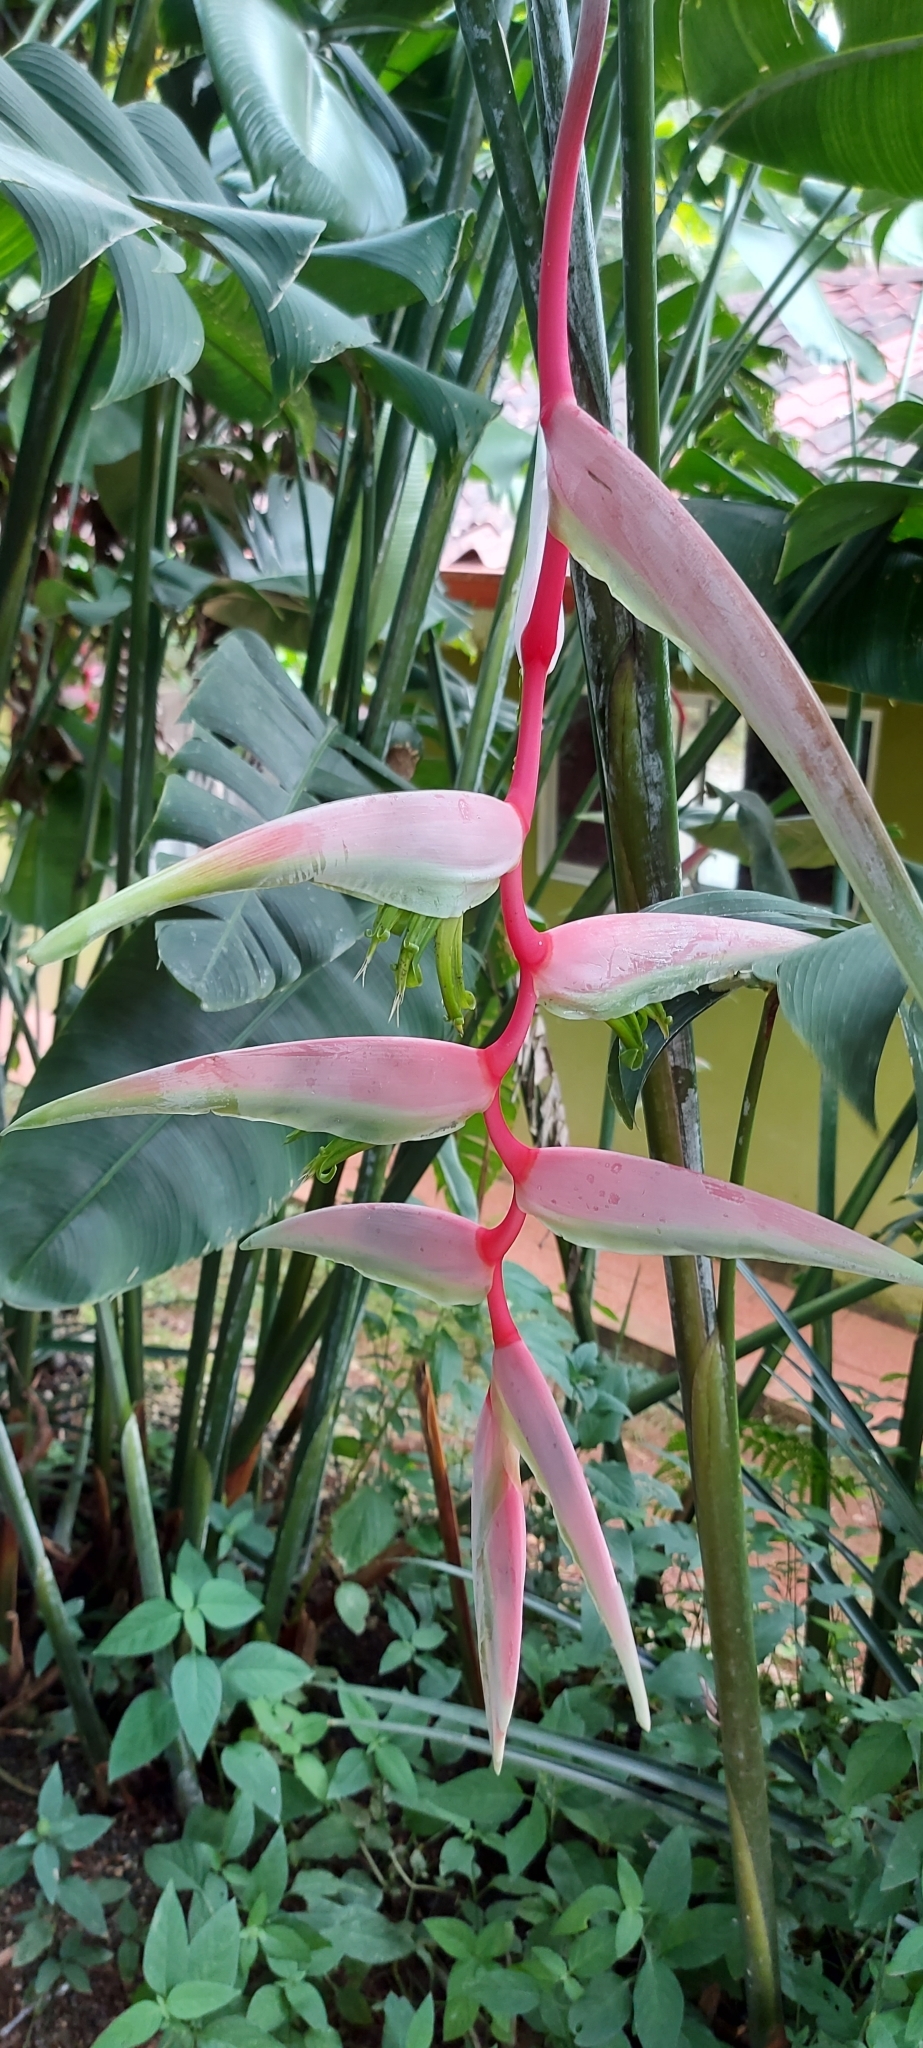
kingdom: Plantae
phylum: Tracheophyta
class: Liliopsida
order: Zingiberales
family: Heliconiaceae
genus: Heliconia
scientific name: Heliconia chartacea
